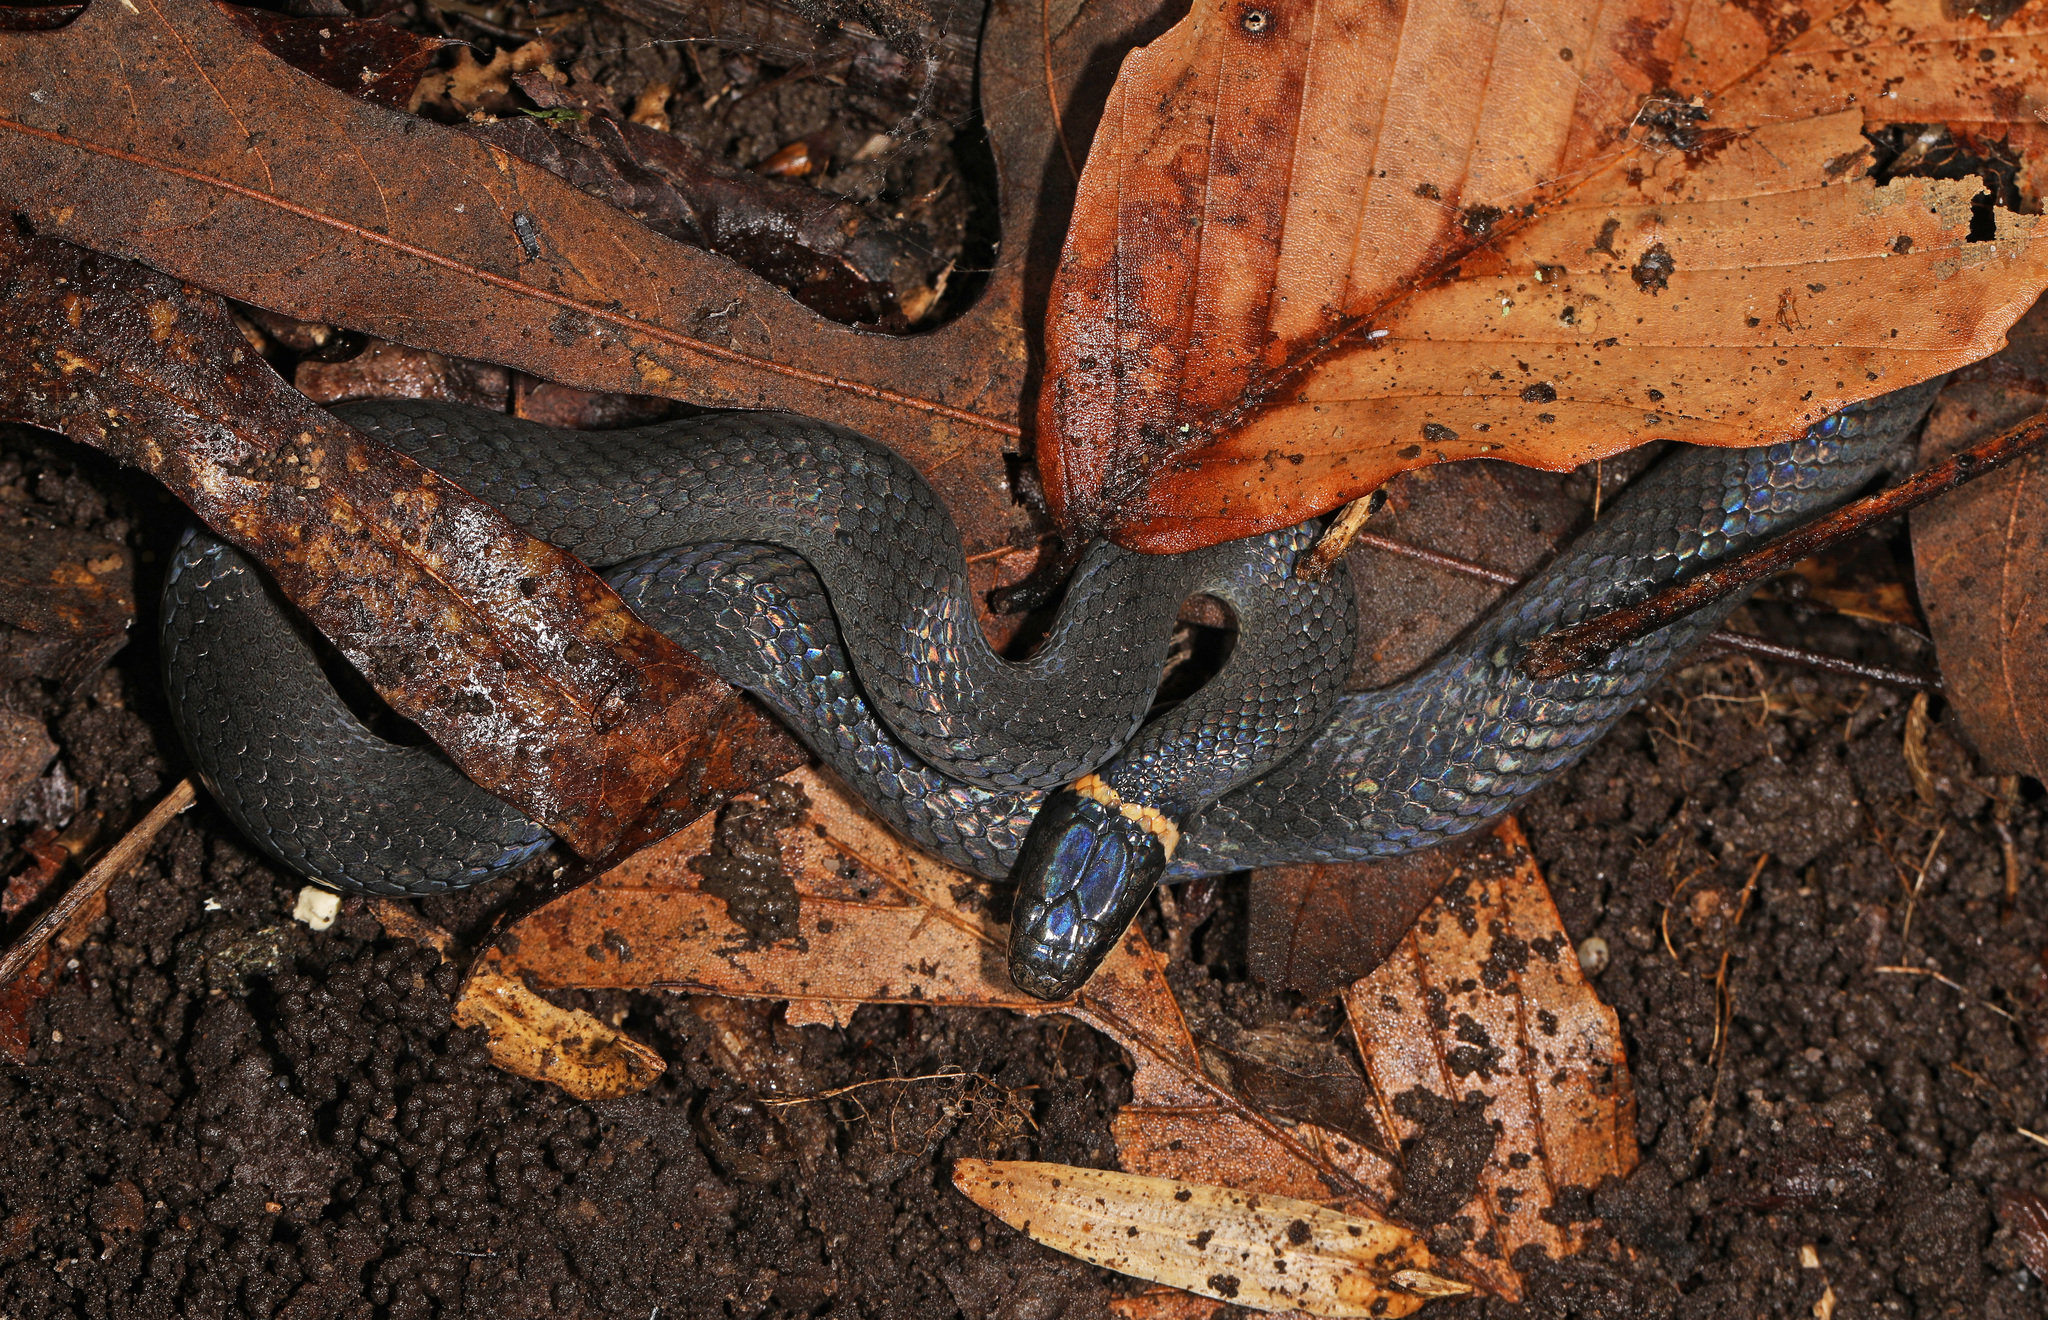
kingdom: Animalia
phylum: Chordata
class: Squamata
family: Colubridae
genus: Diadophis
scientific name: Diadophis punctatus
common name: Ringneck snake
